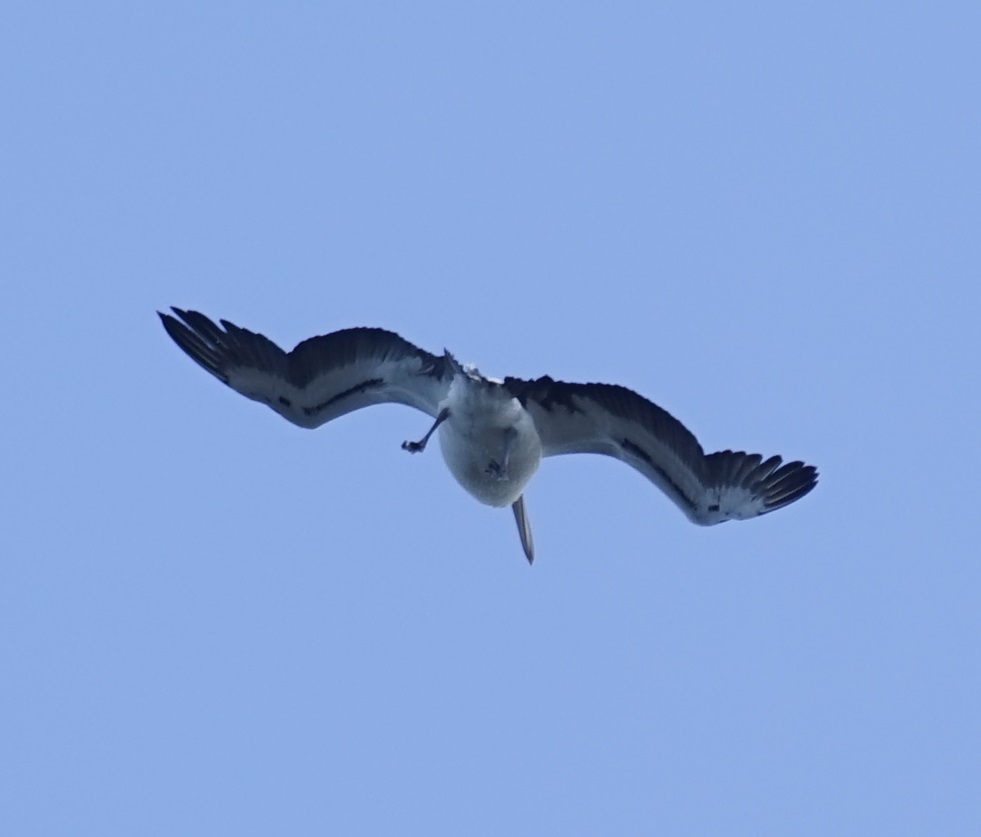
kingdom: Animalia
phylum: Chordata
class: Aves
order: Pelecaniformes
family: Pelecanidae
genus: Pelecanus
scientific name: Pelecanus conspicillatus
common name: Australian pelican
